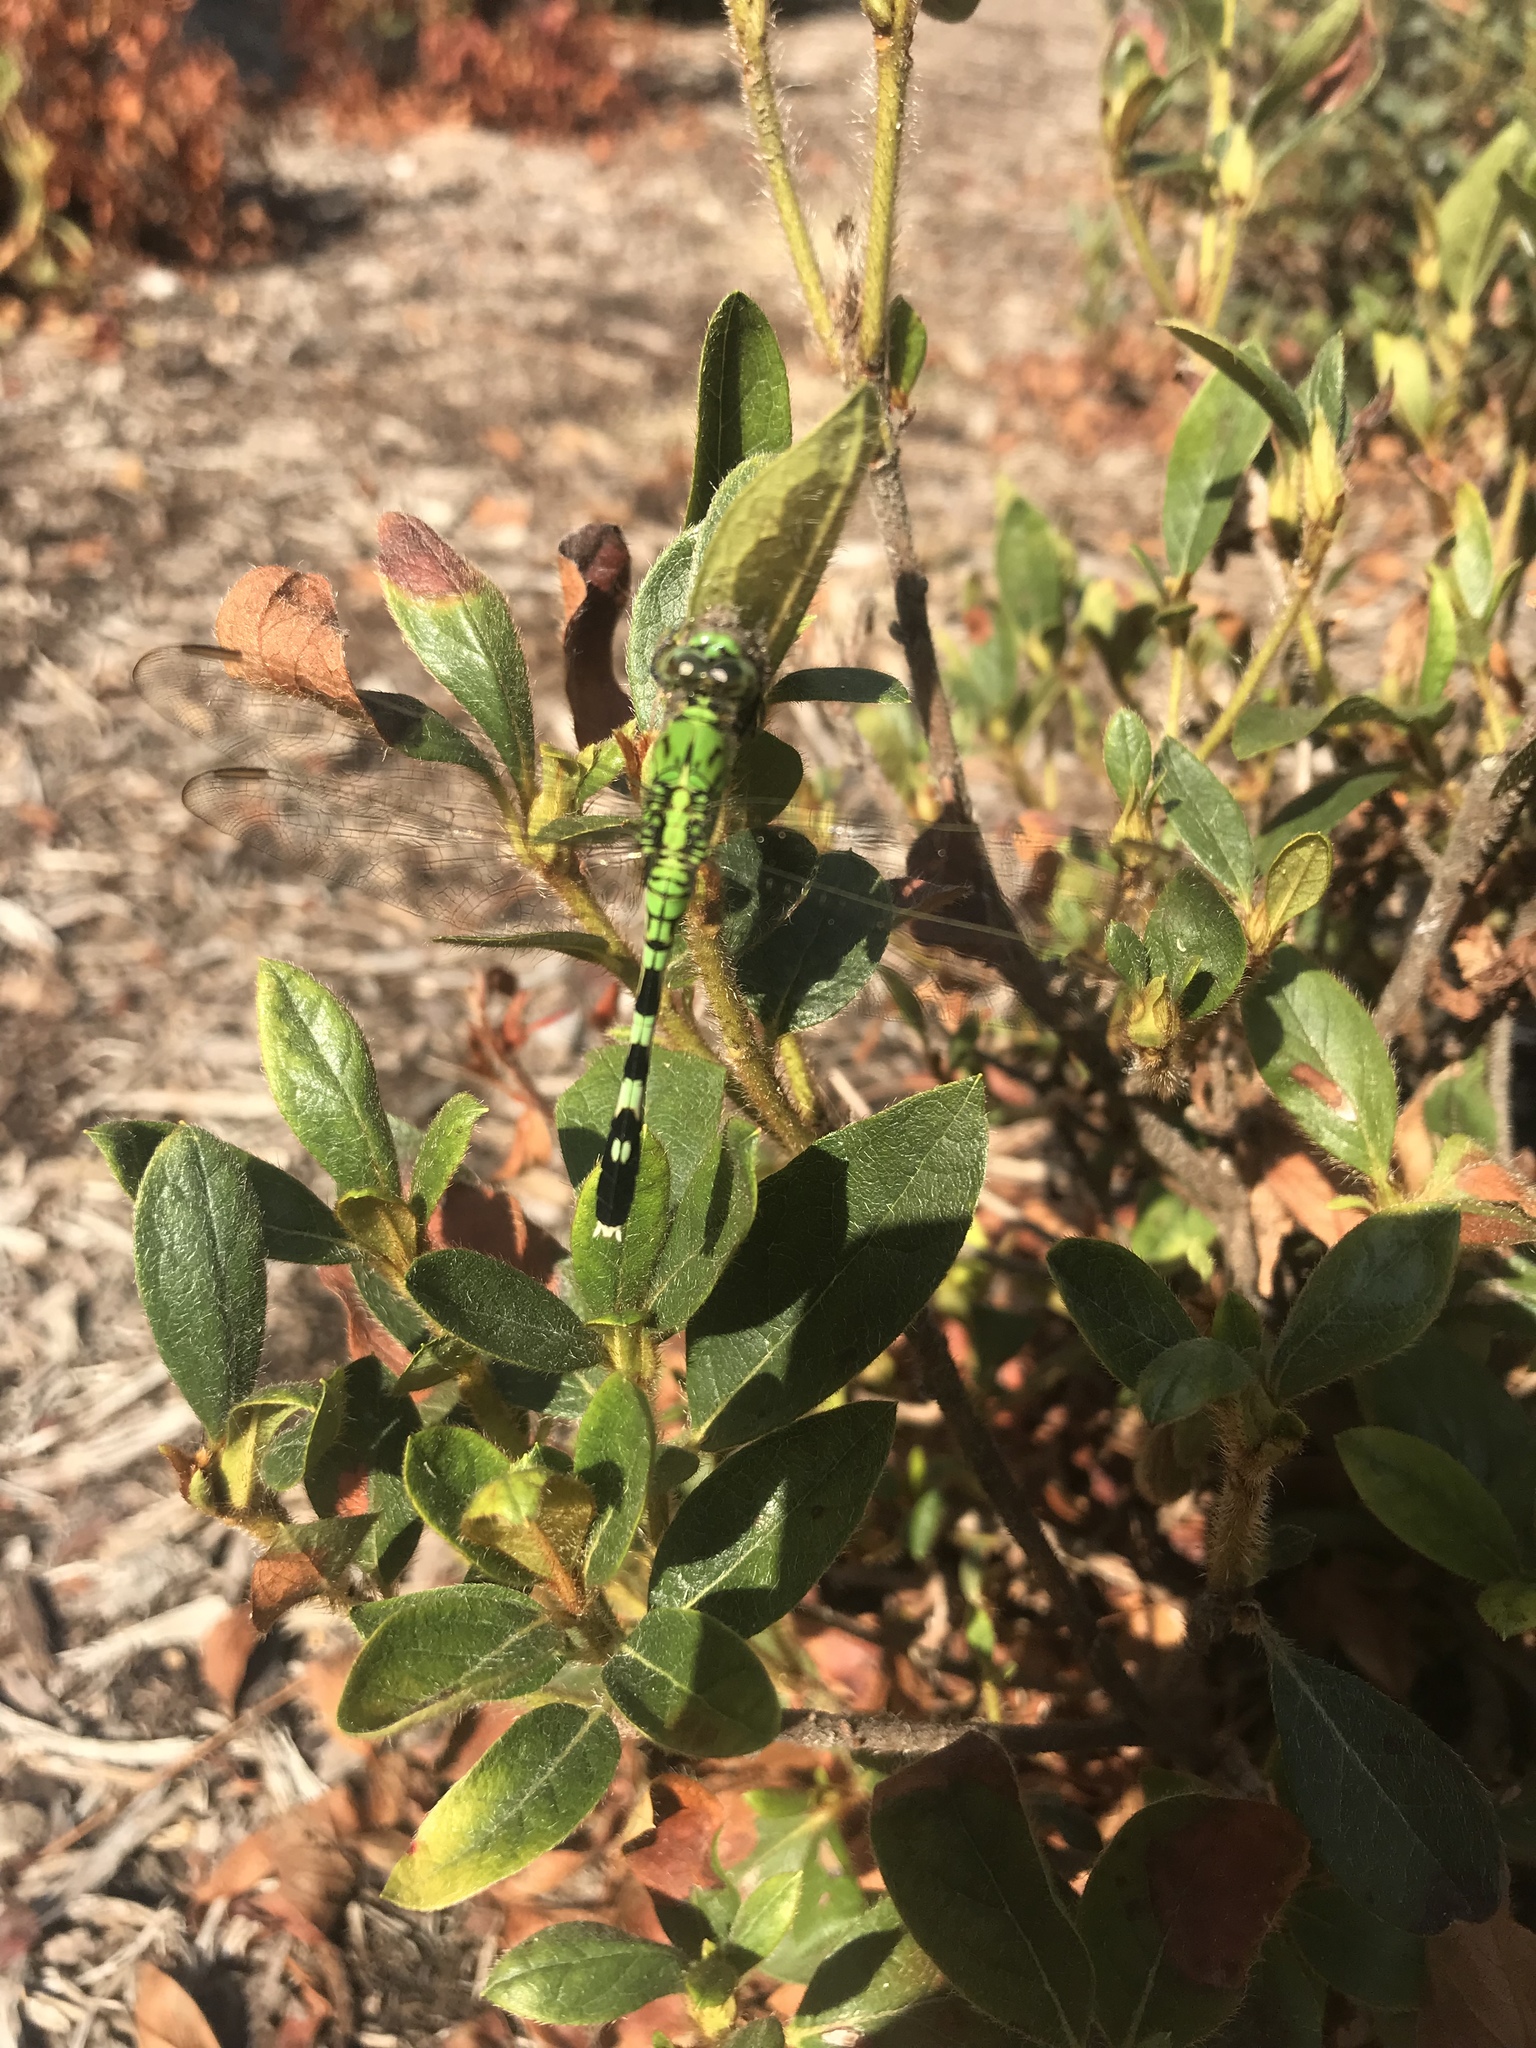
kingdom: Animalia
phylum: Arthropoda
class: Insecta
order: Odonata
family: Libellulidae
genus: Erythemis
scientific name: Erythemis simplicicollis
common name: Eastern pondhawk
